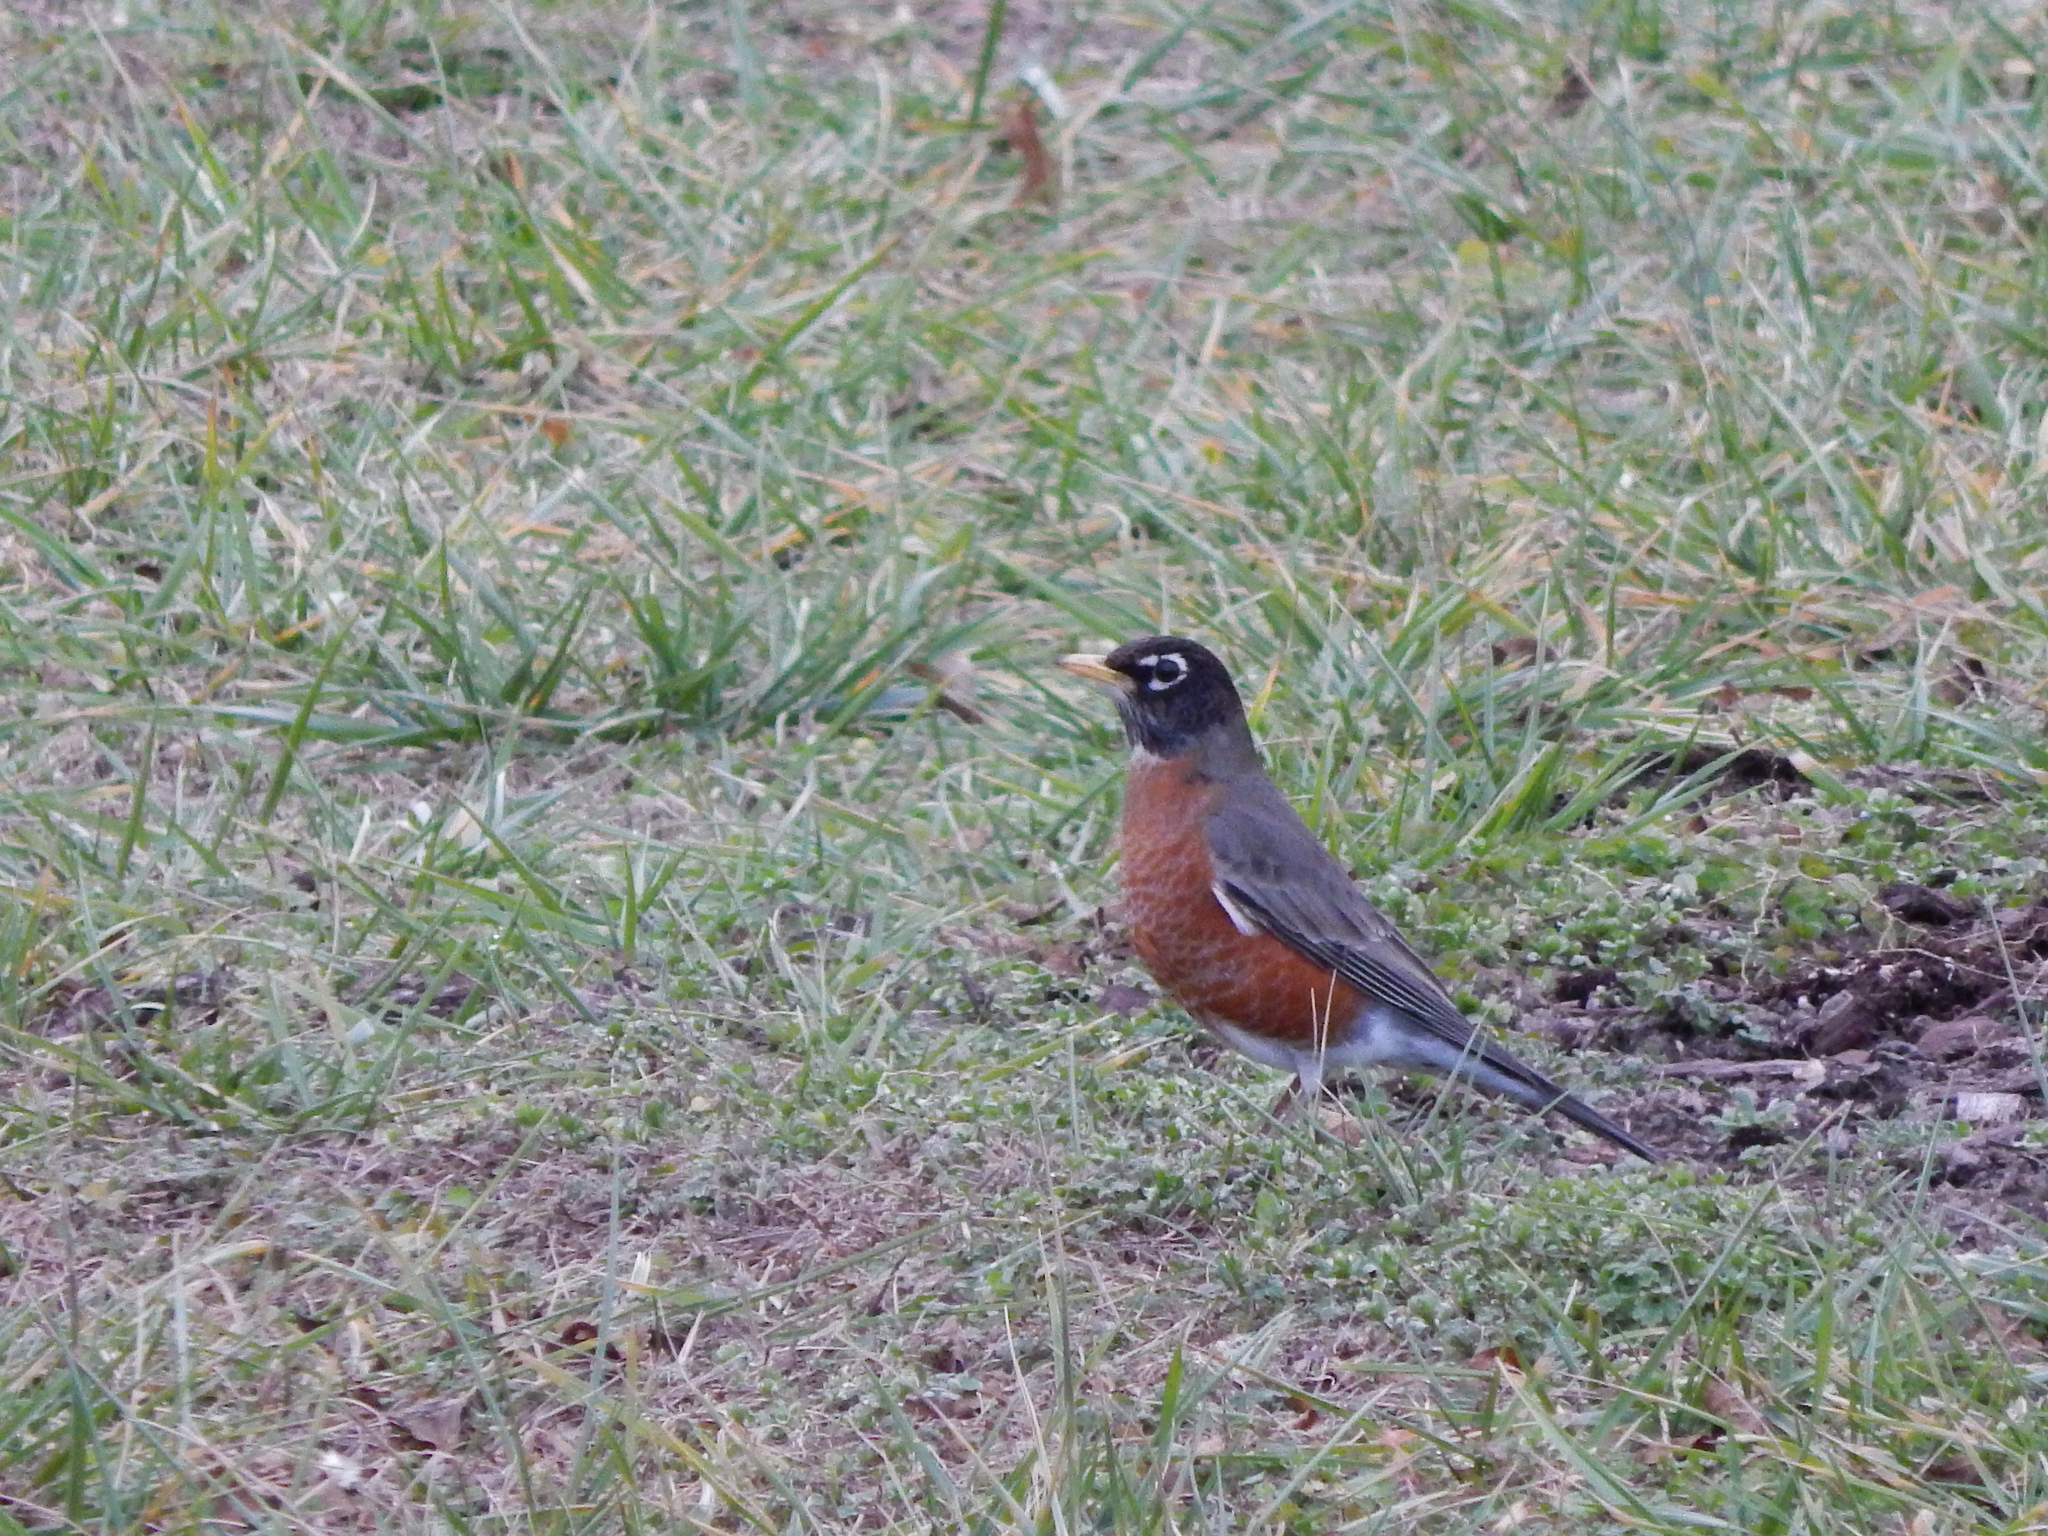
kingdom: Animalia
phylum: Chordata
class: Aves
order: Passeriformes
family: Turdidae
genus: Turdus
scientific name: Turdus migratorius
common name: American robin
